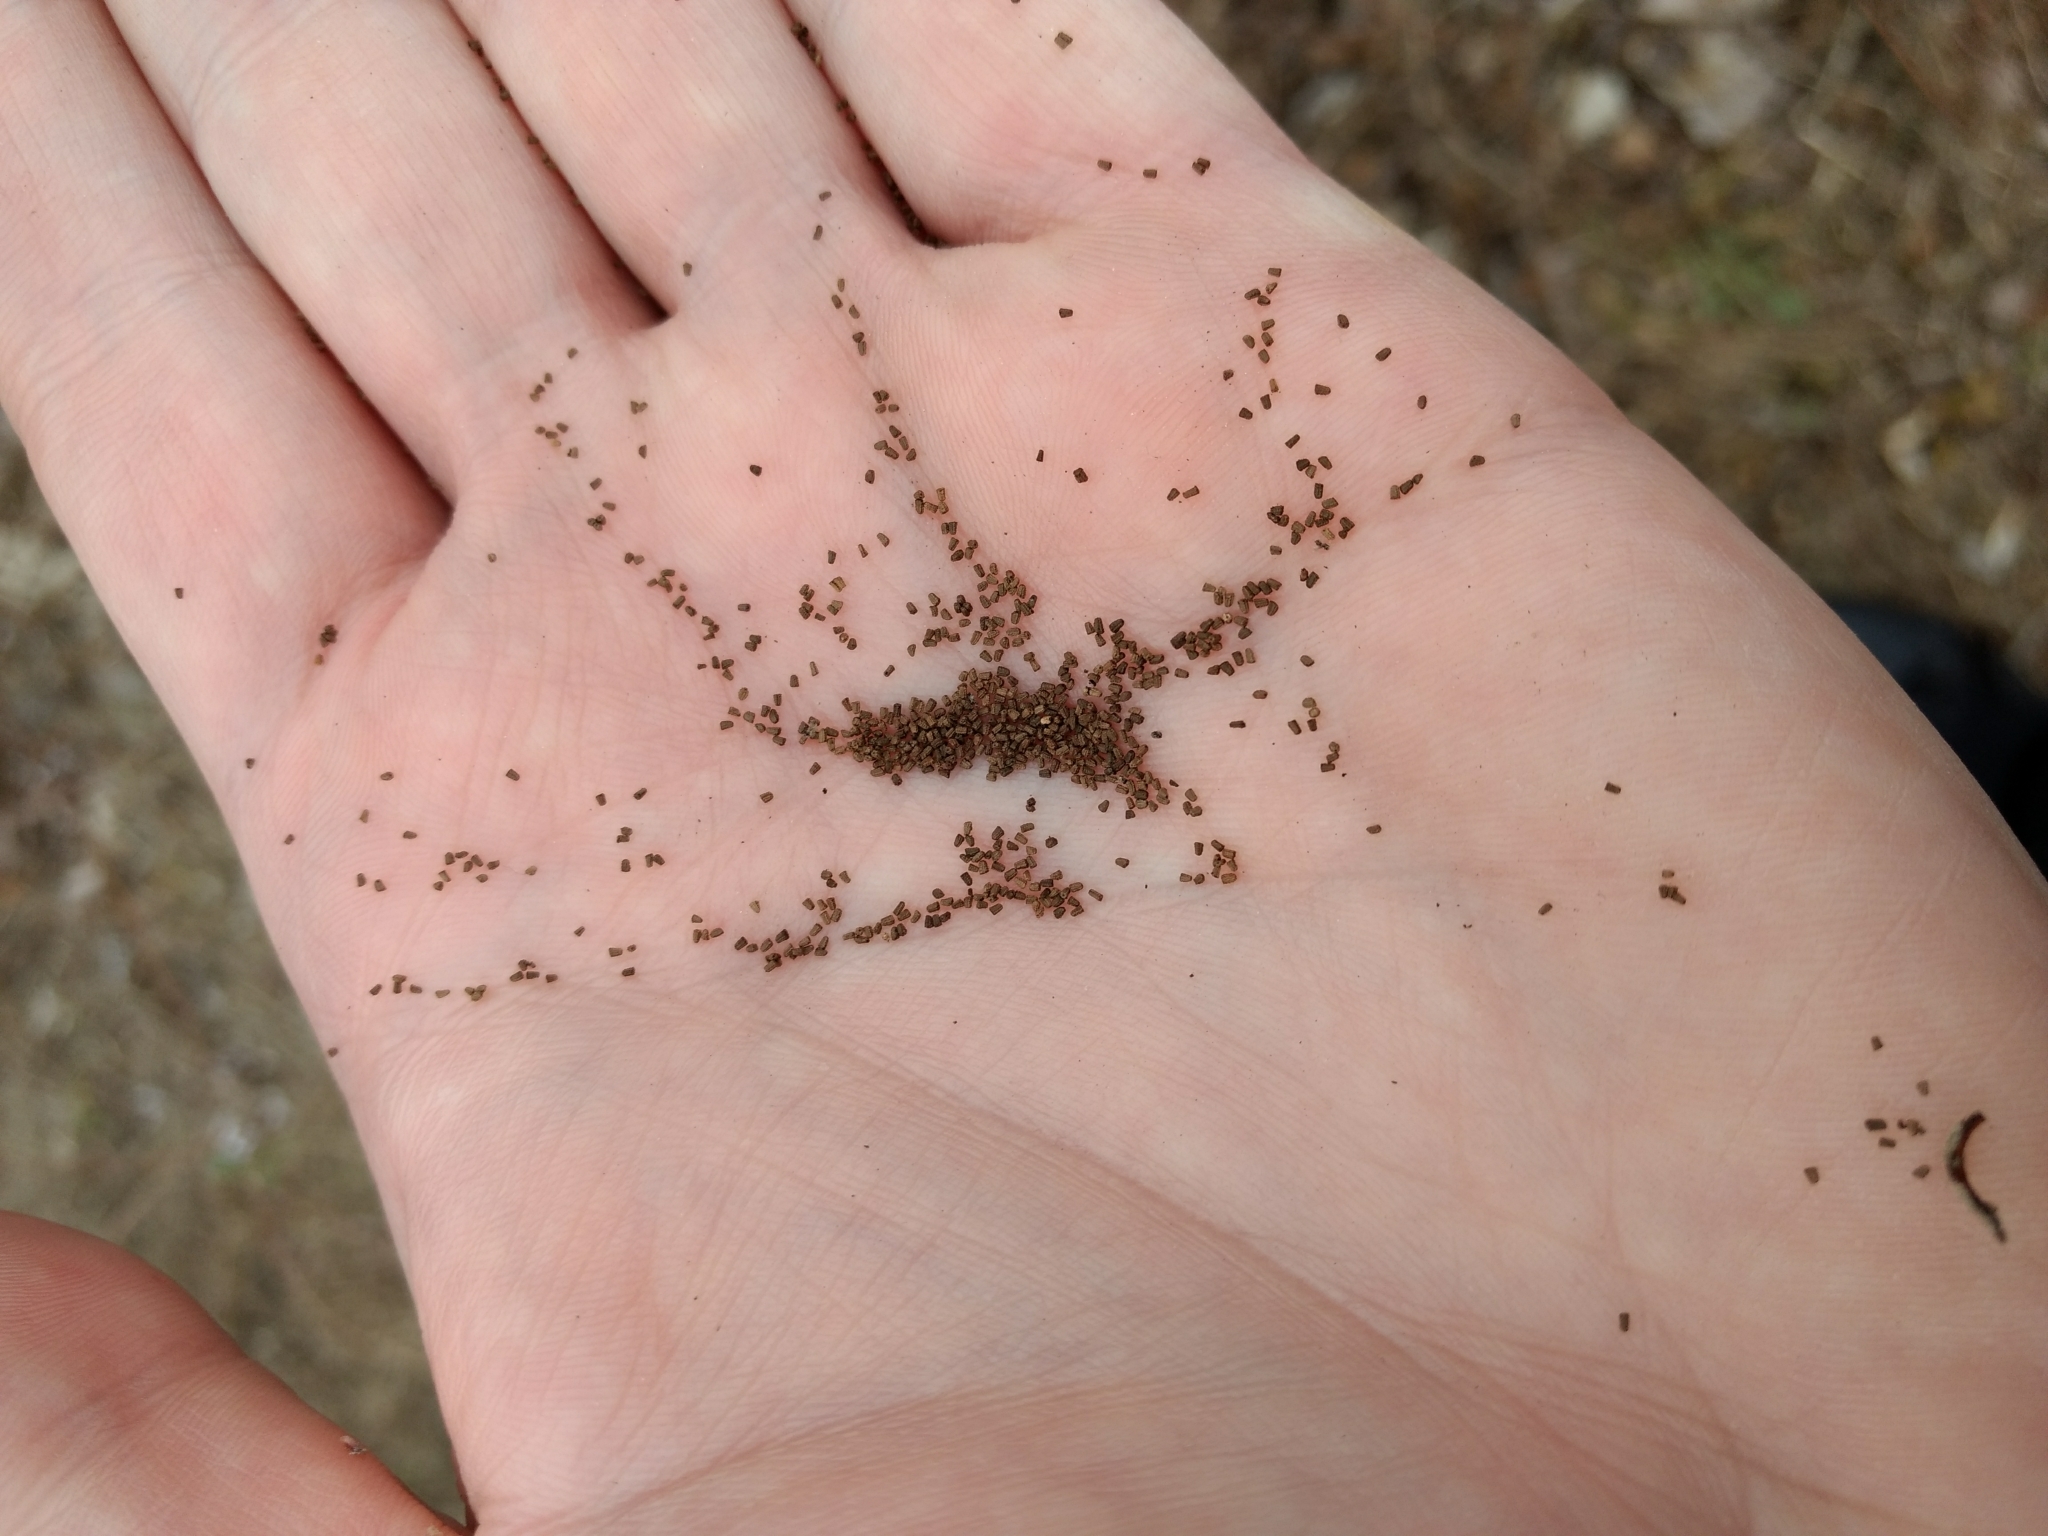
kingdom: Plantae
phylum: Tracheophyta
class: Magnoliopsida
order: Lamiales
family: Scrophulariaceae
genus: Verbascum
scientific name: Verbascum thapsus
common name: Common mullein
